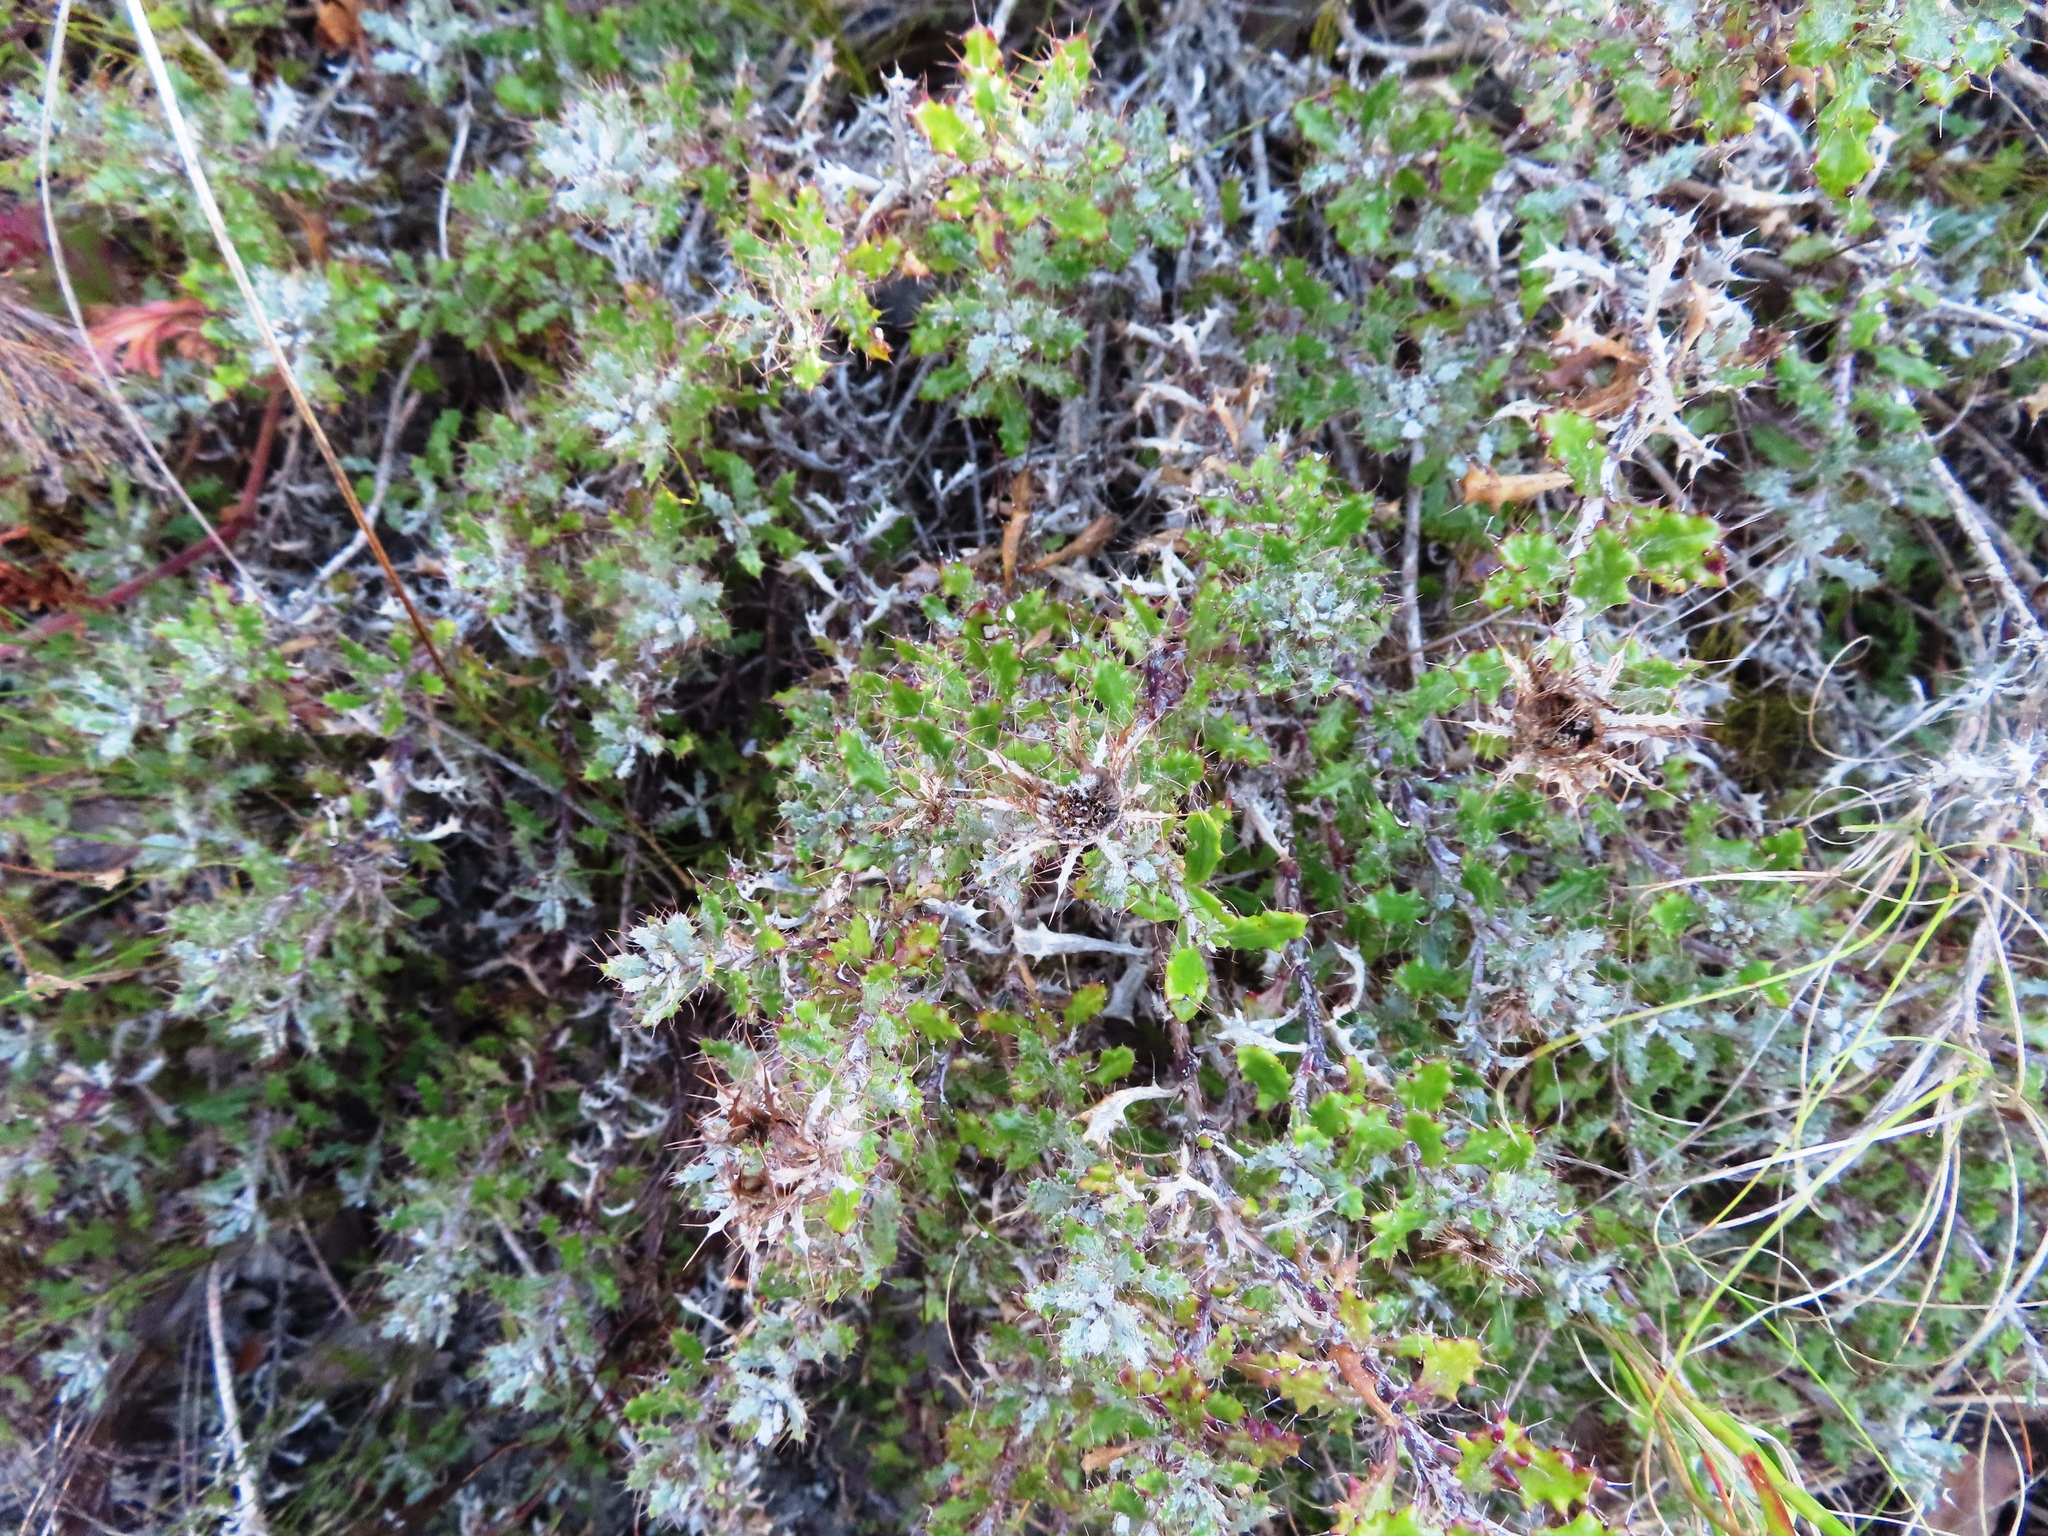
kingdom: Plantae
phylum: Tracheophyta
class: Magnoliopsida
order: Asterales
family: Asteraceae
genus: Berkheya
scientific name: Berkheya coriacea
